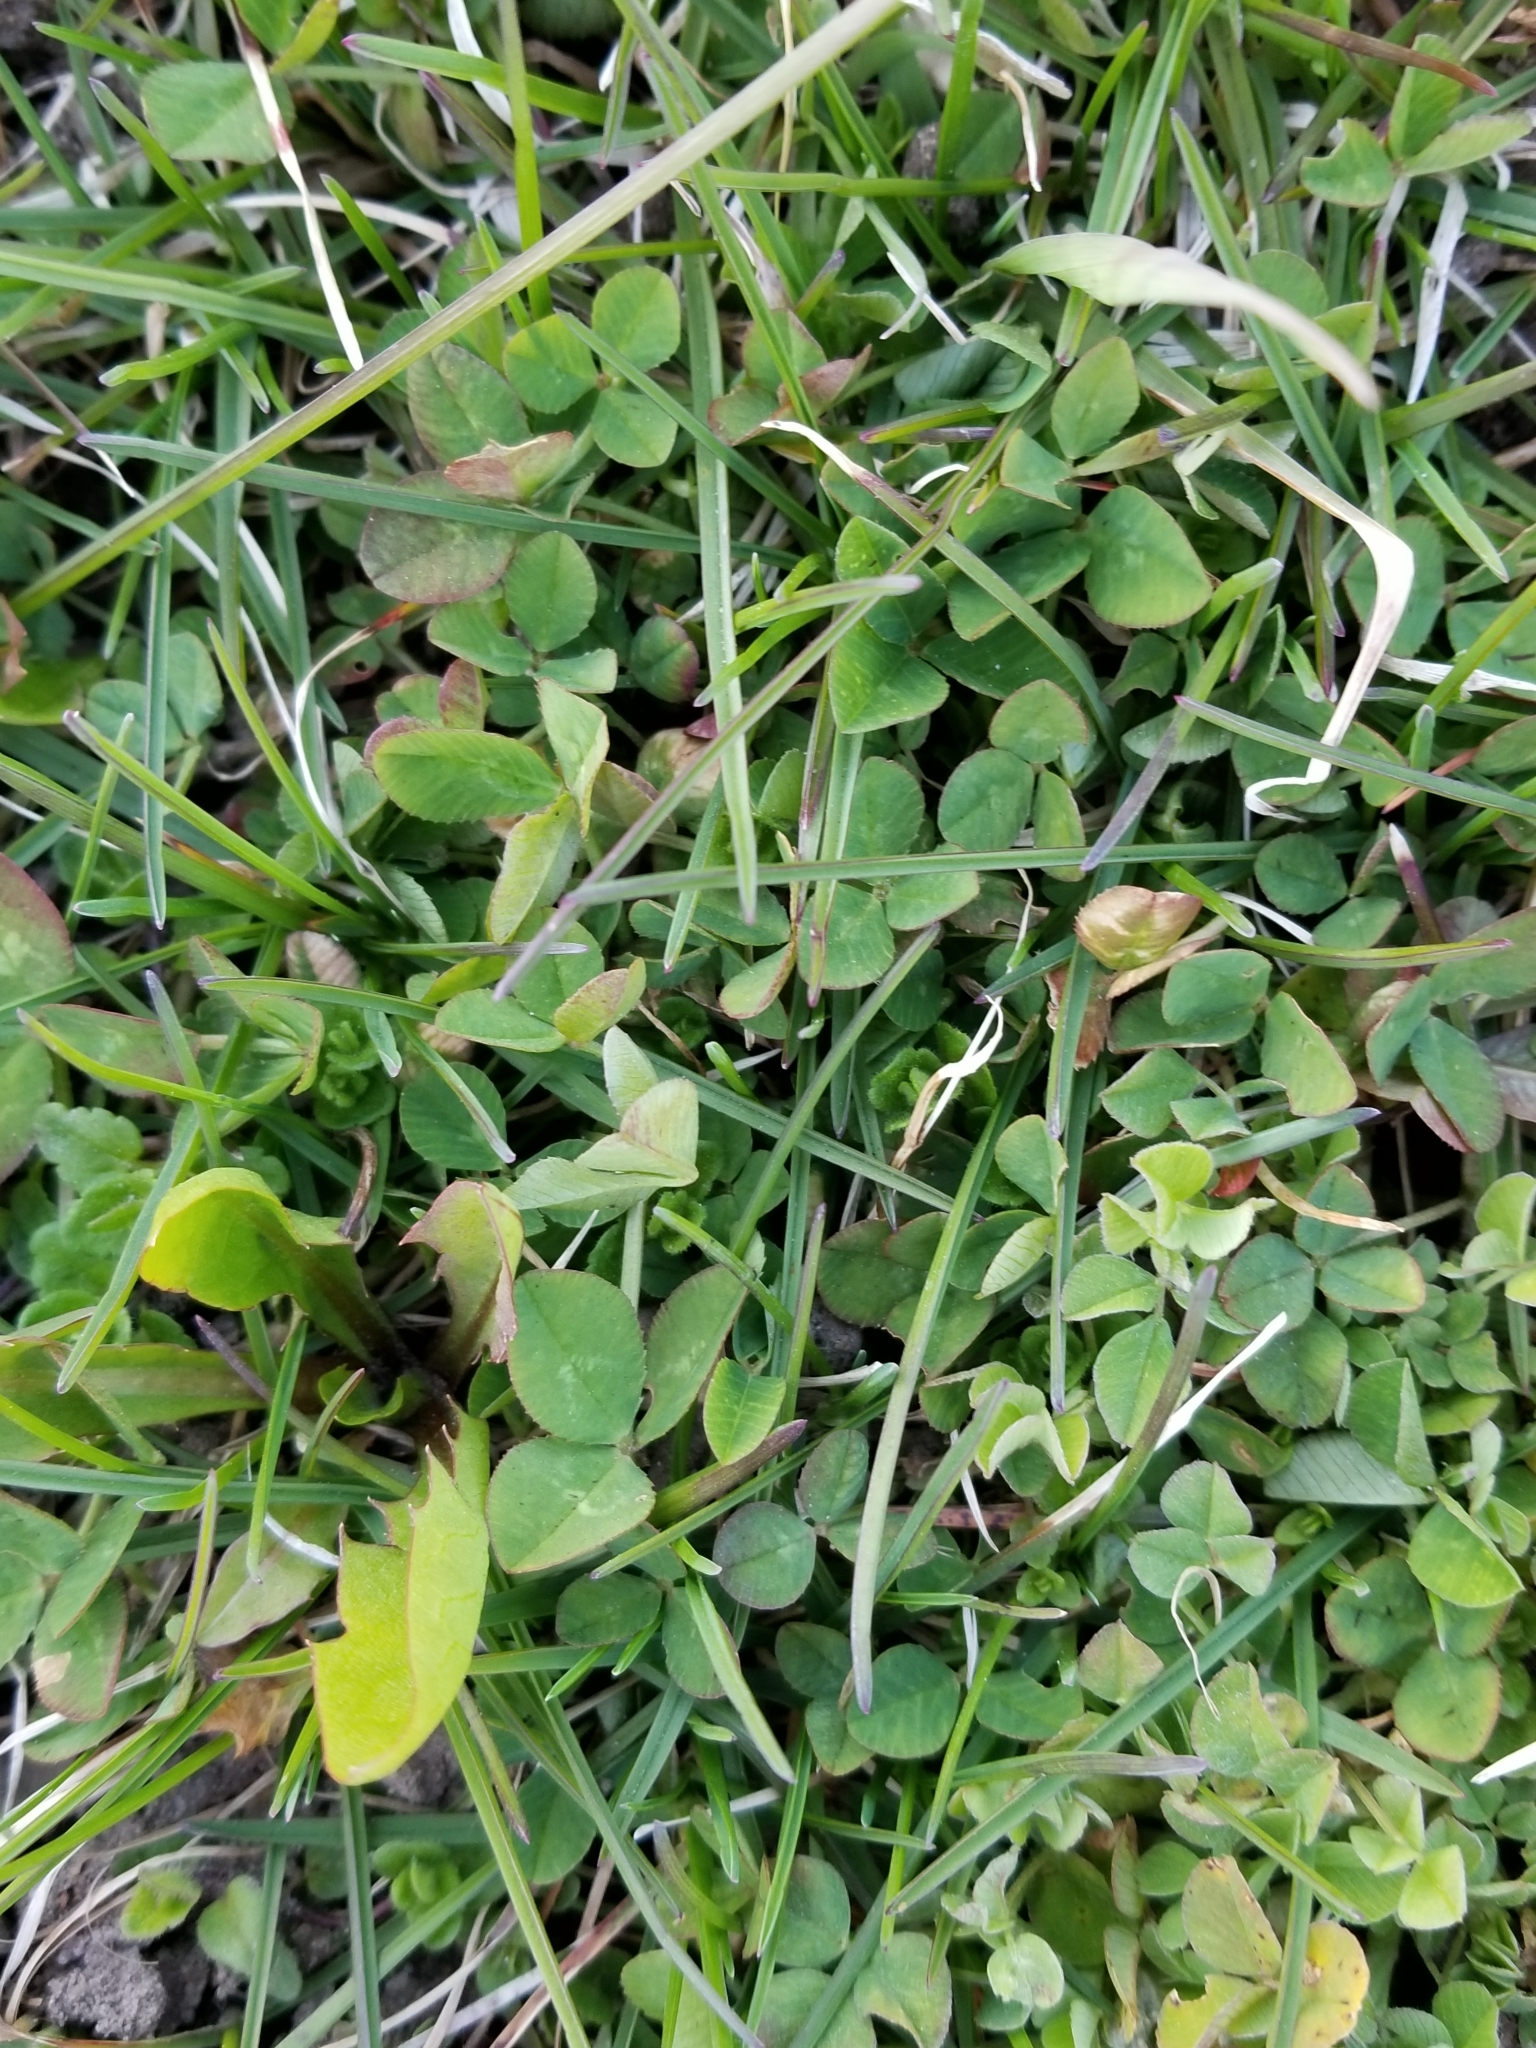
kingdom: Plantae
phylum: Tracheophyta
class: Magnoliopsida
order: Fabales
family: Fabaceae
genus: Trifolium
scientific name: Trifolium repens
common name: White clover
